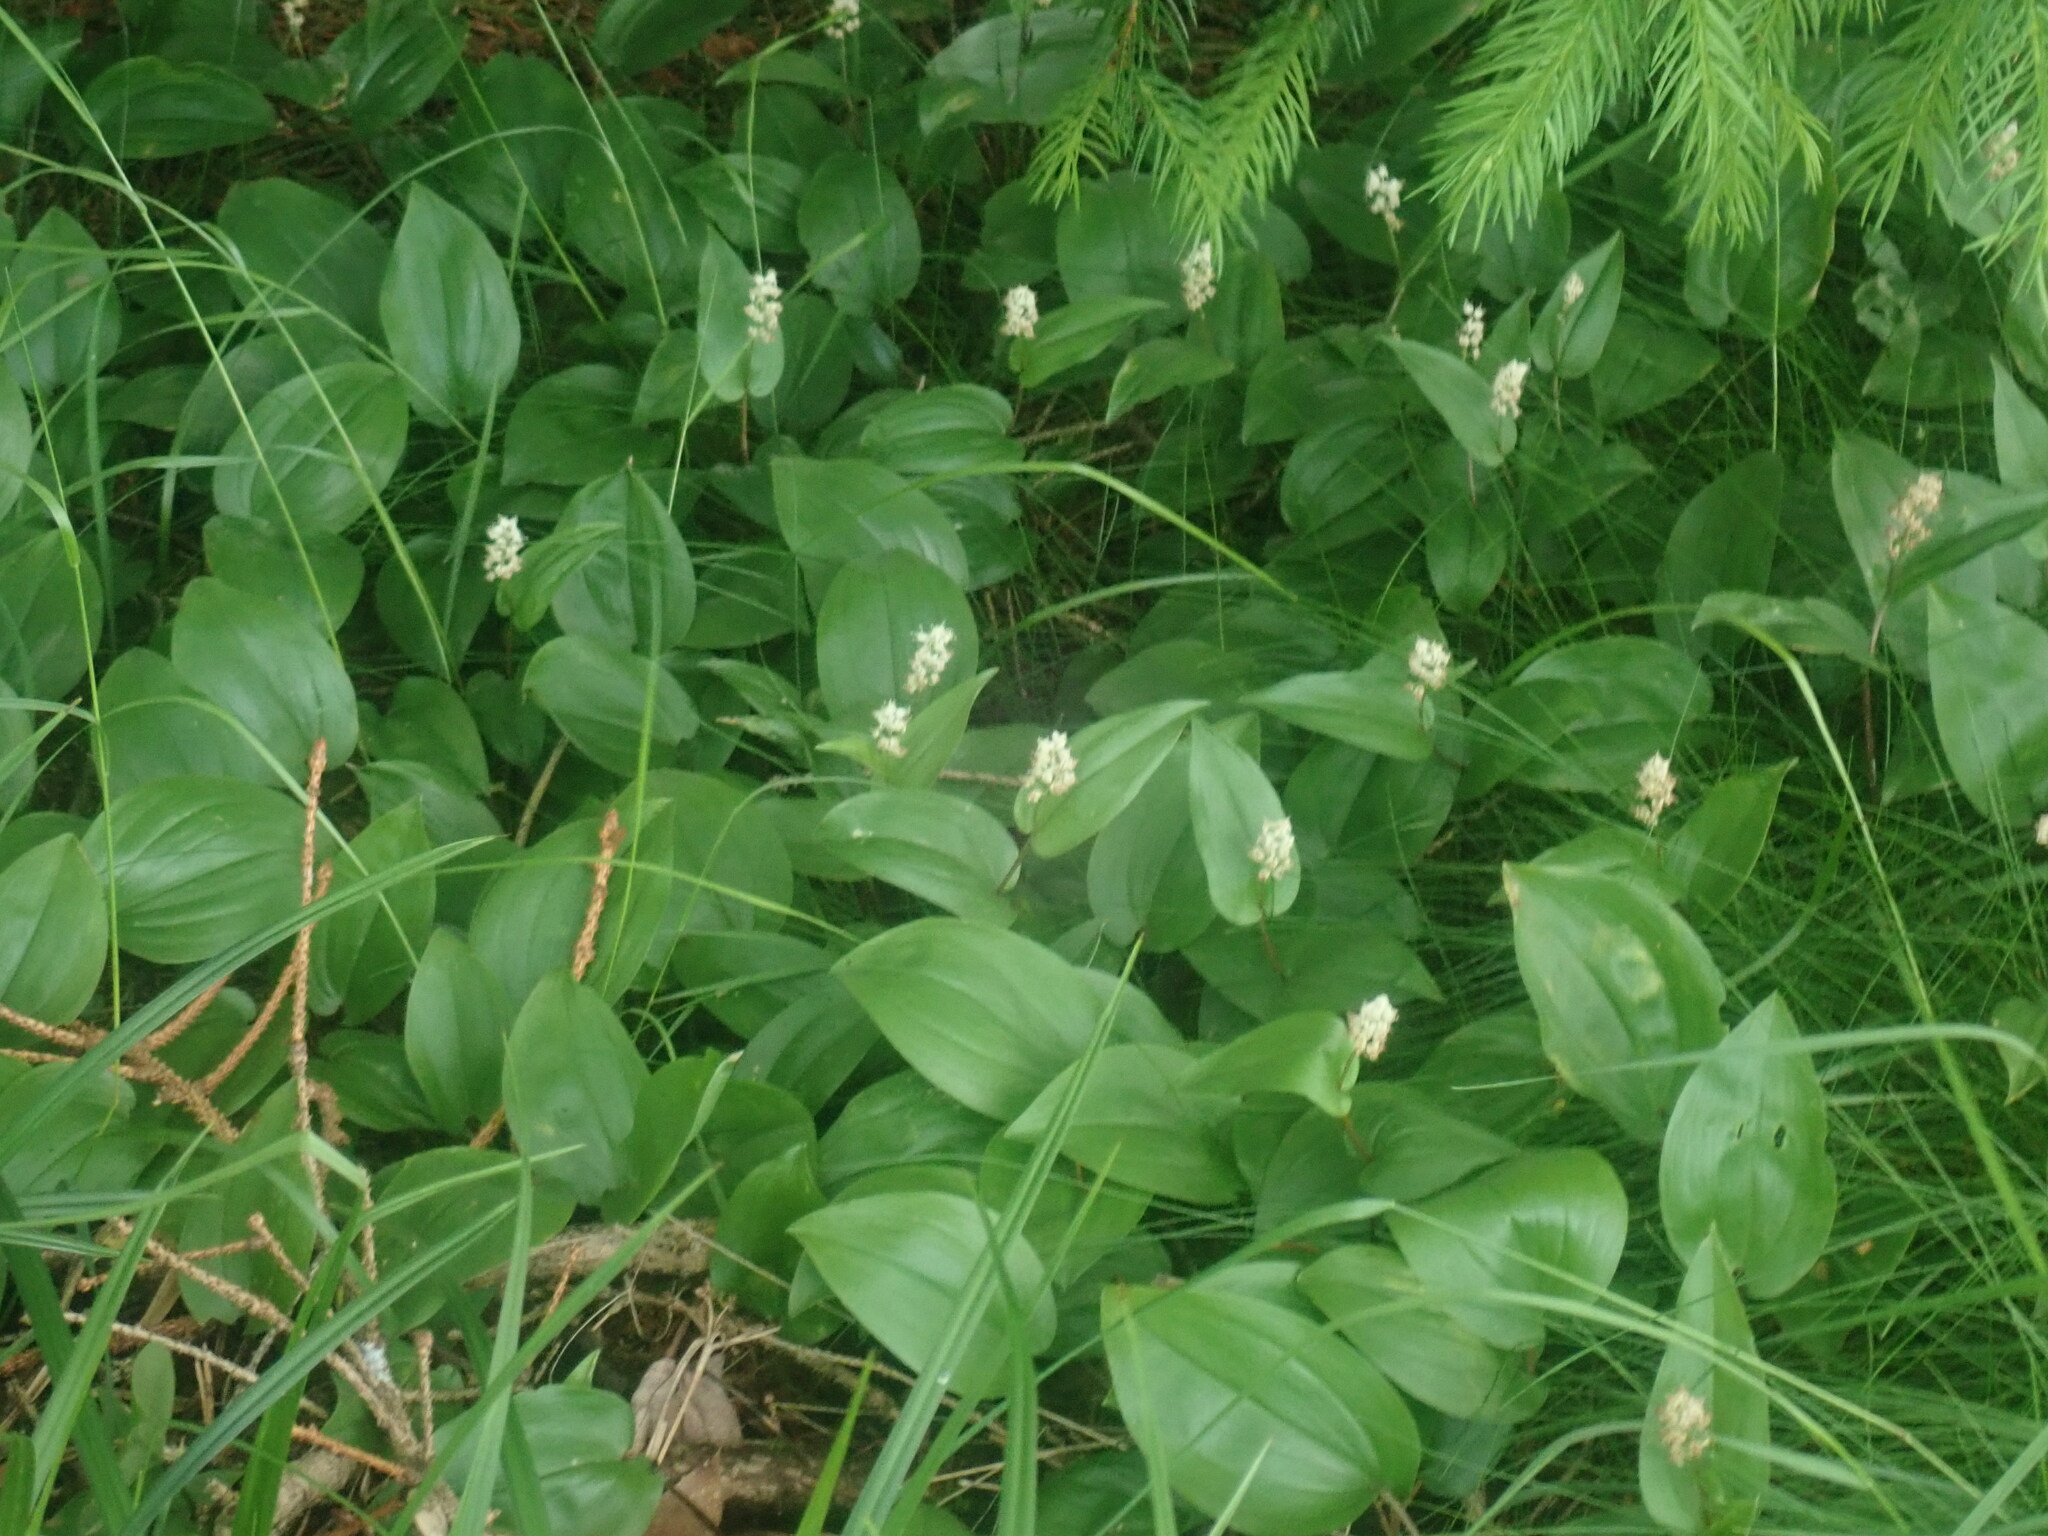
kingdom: Plantae
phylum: Tracheophyta
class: Liliopsida
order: Asparagales
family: Asparagaceae
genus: Maianthemum
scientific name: Maianthemum canadense
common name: False lily-of-the-valley
